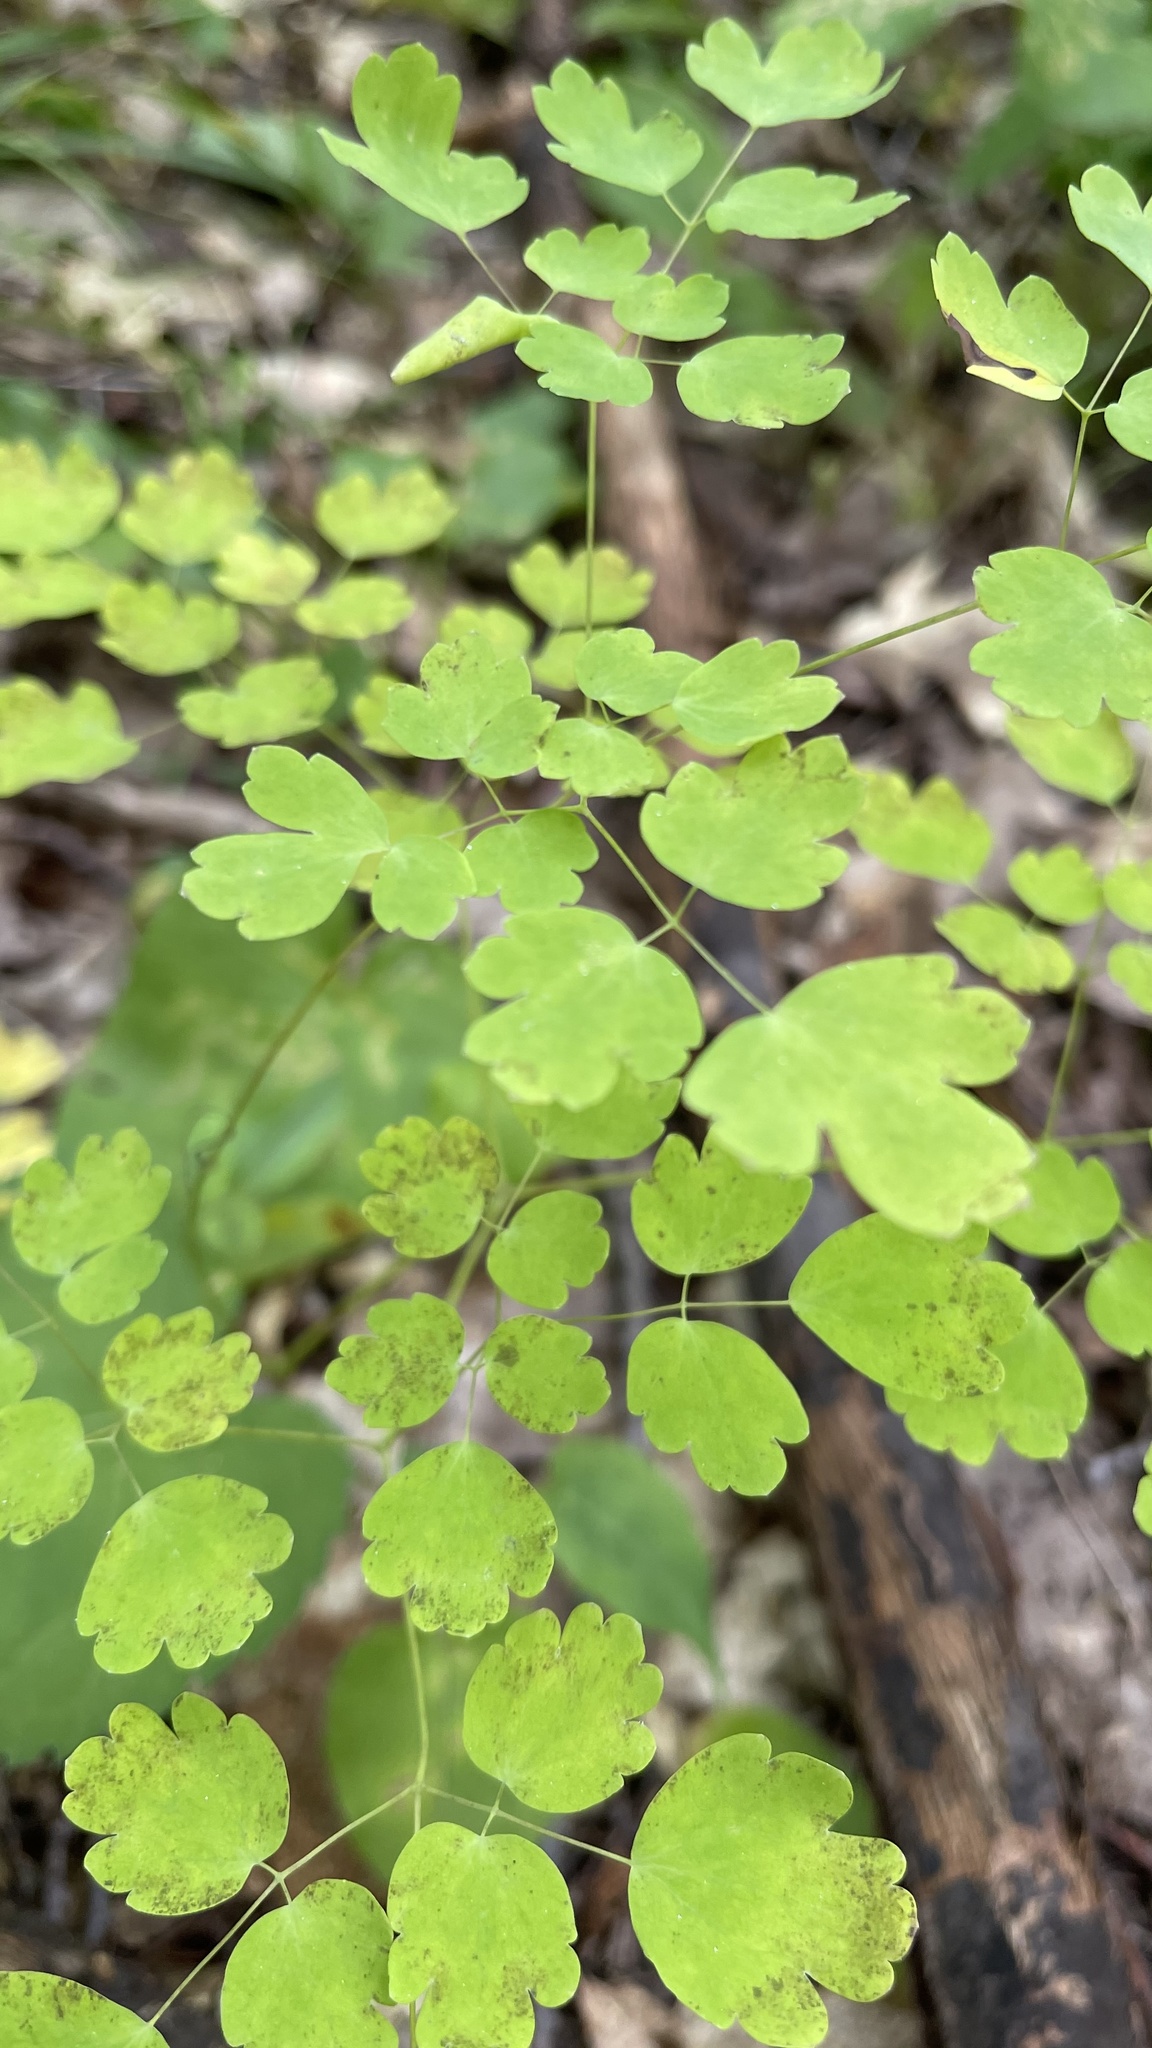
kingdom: Plantae
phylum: Tracheophyta
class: Magnoliopsida
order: Ranunculales
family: Ranunculaceae
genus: Thalictrum
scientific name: Thalictrum dioicum
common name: Early meadow-rue
